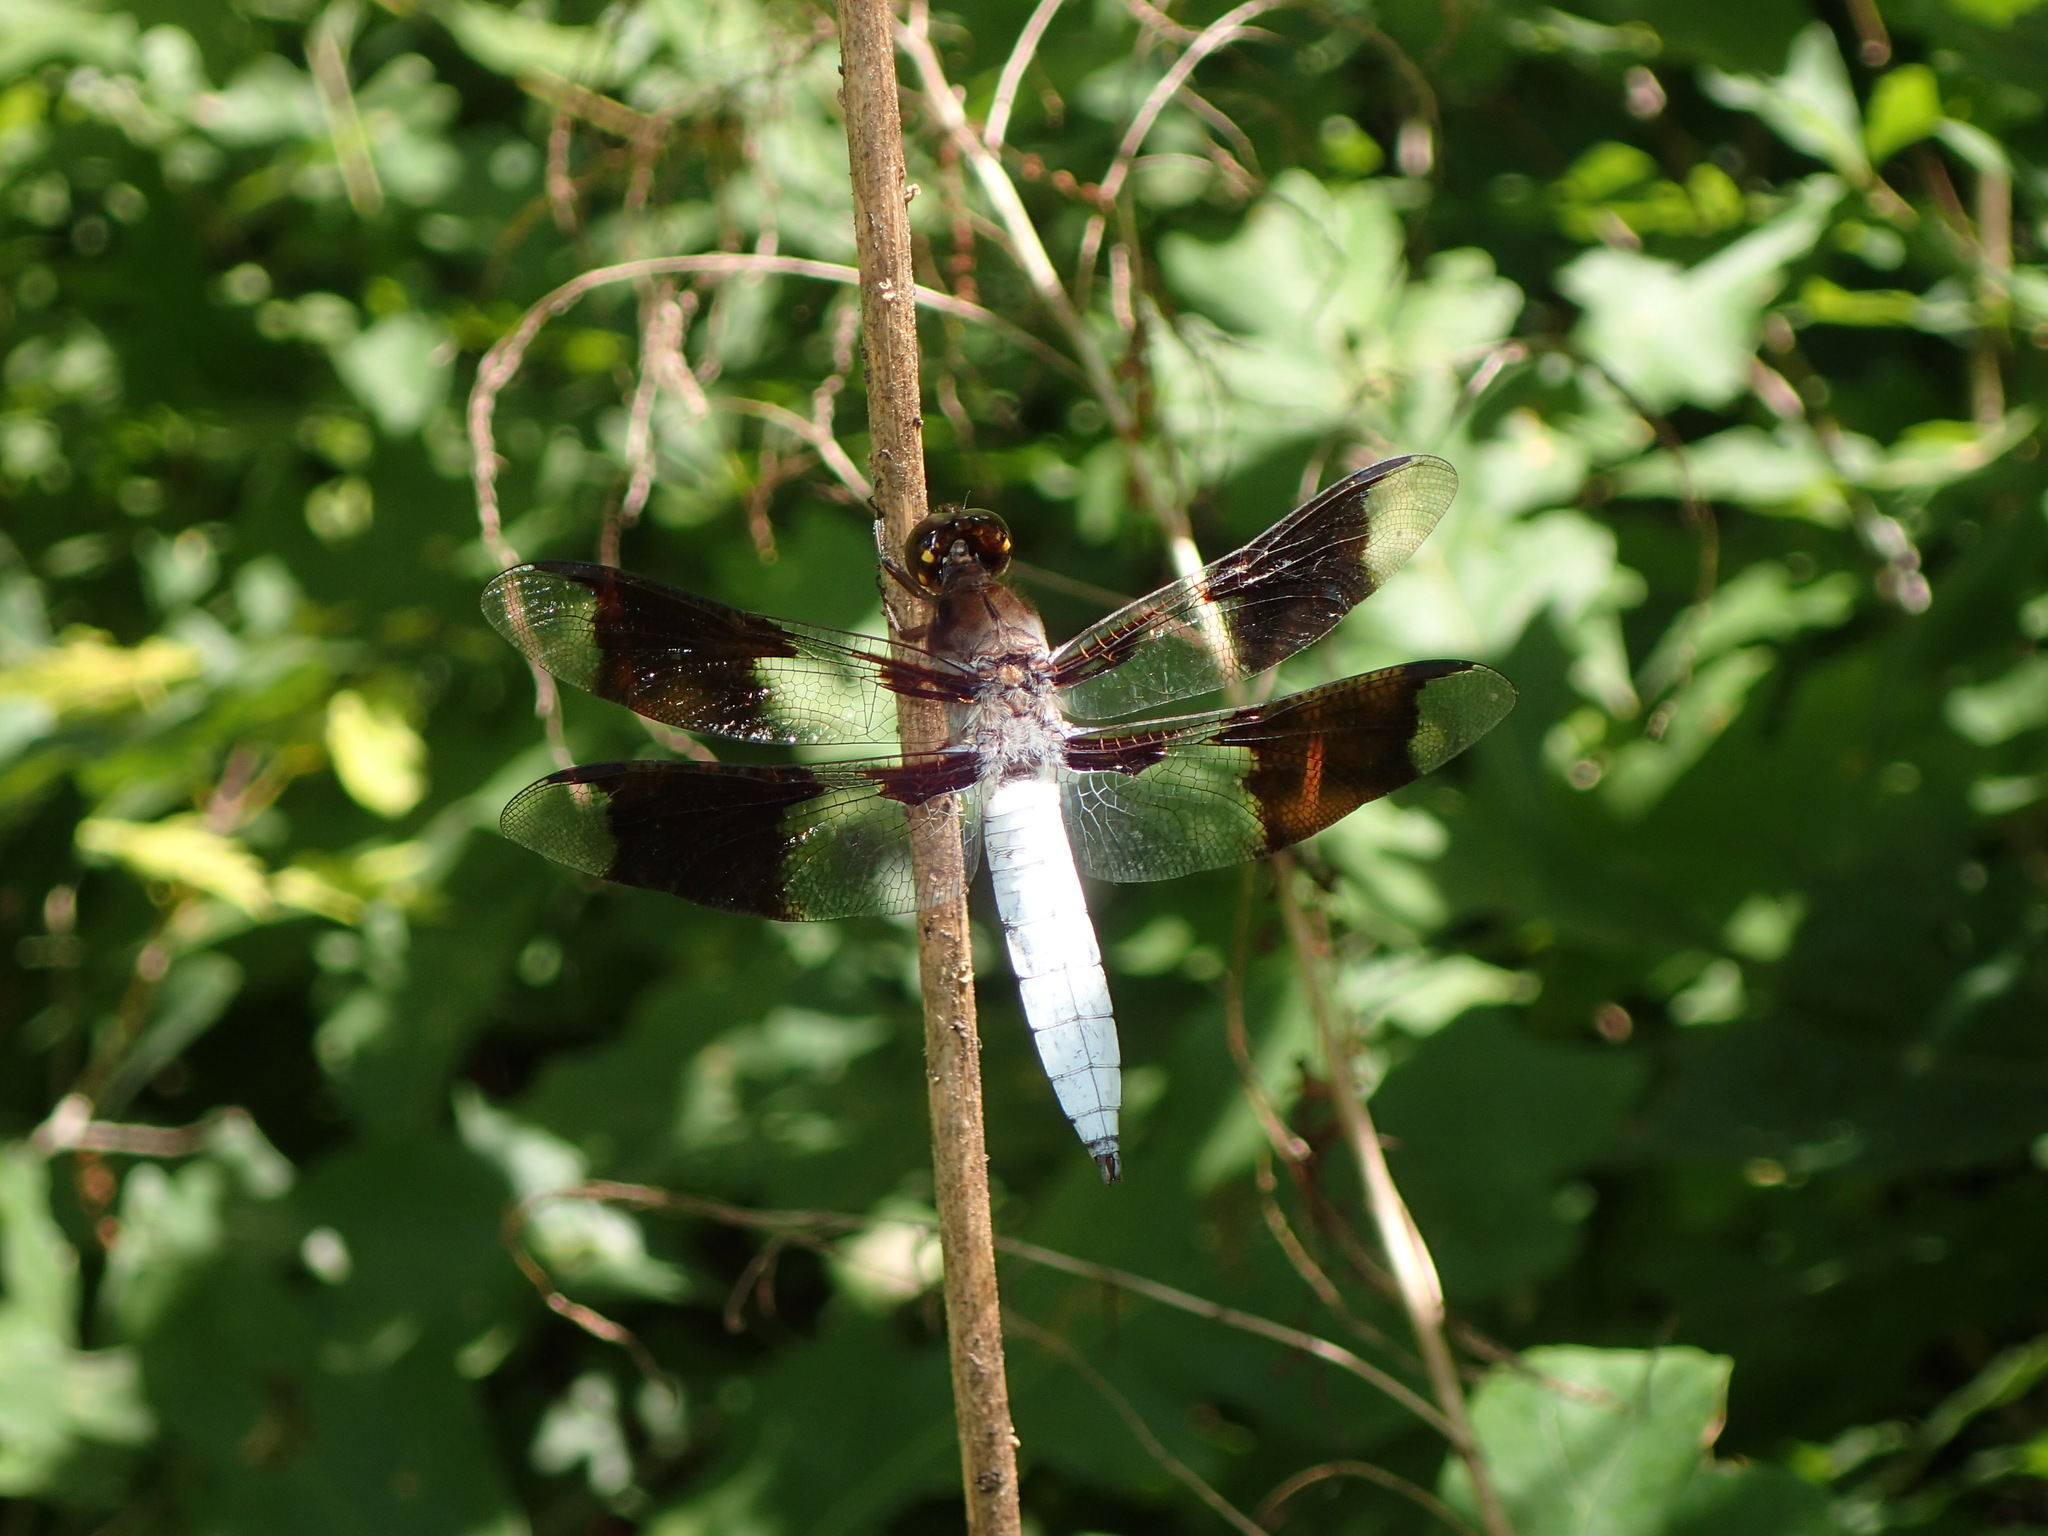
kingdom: Animalia
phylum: Arthropoda
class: Insecta
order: Odonata
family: Libellulidae
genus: Plathemis
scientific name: Plathemis lydia
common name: Common whitetail
